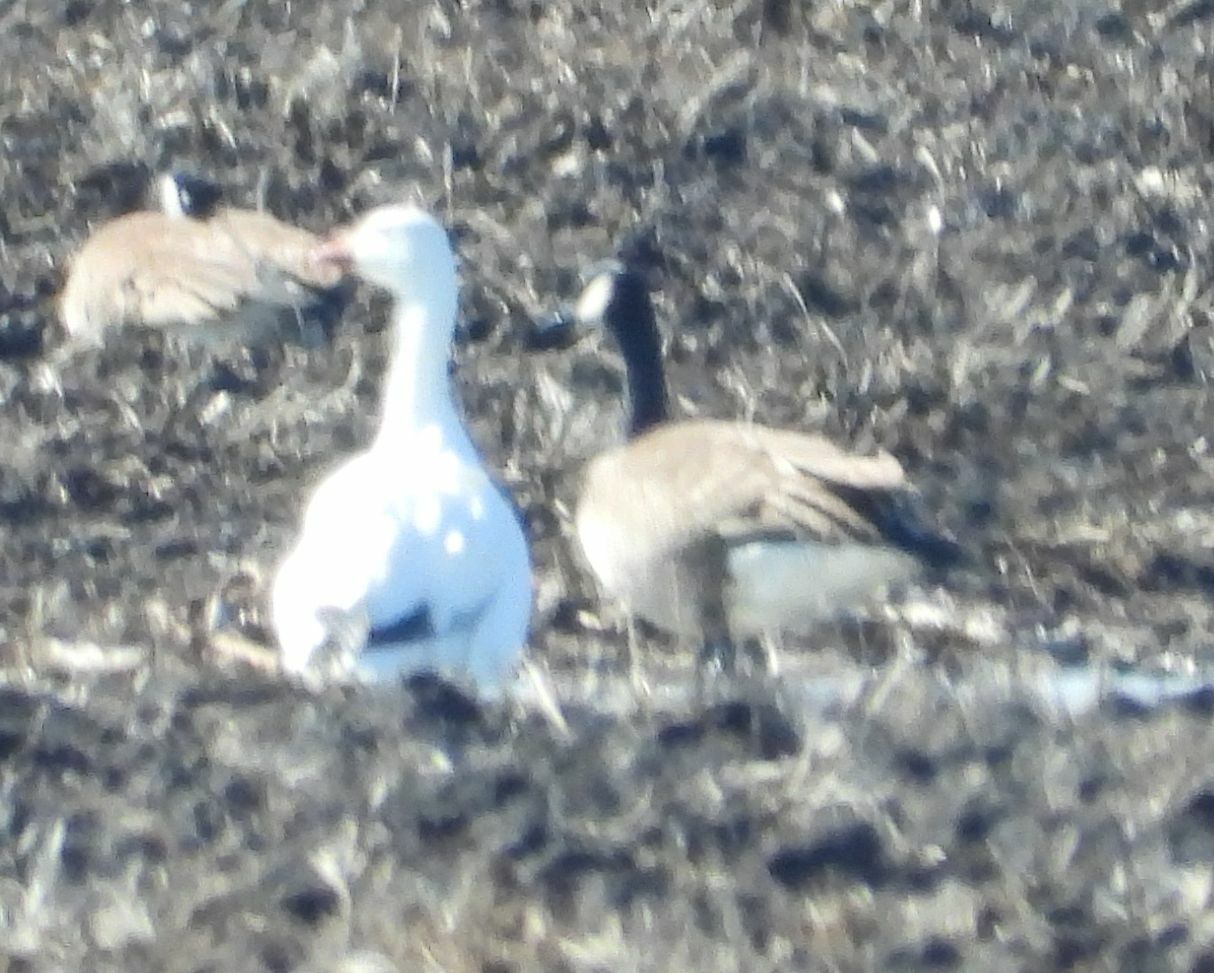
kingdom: Animalia
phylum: Chordata
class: Aves
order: Anseriformes
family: Anatidae
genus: Anser
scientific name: Anser caerulescens
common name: Snow goose
